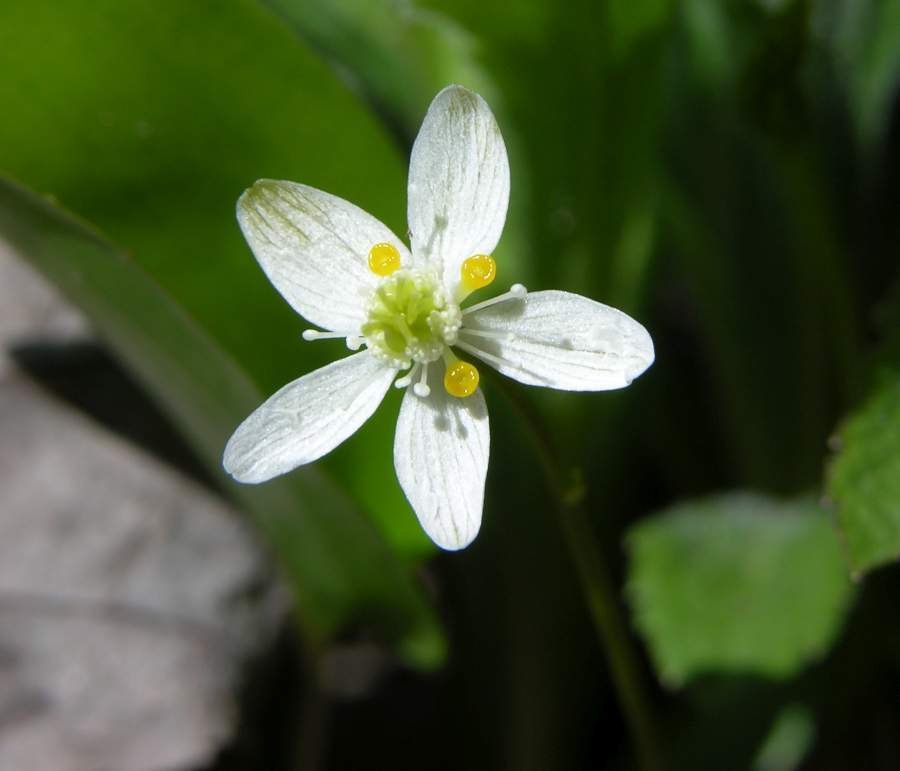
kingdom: Plantae
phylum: Tracheophyta
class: Magnoliopsida
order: Ranunculales
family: Ranunculaceae
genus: Coptis
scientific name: Coptis trifolia
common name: Canker-root
